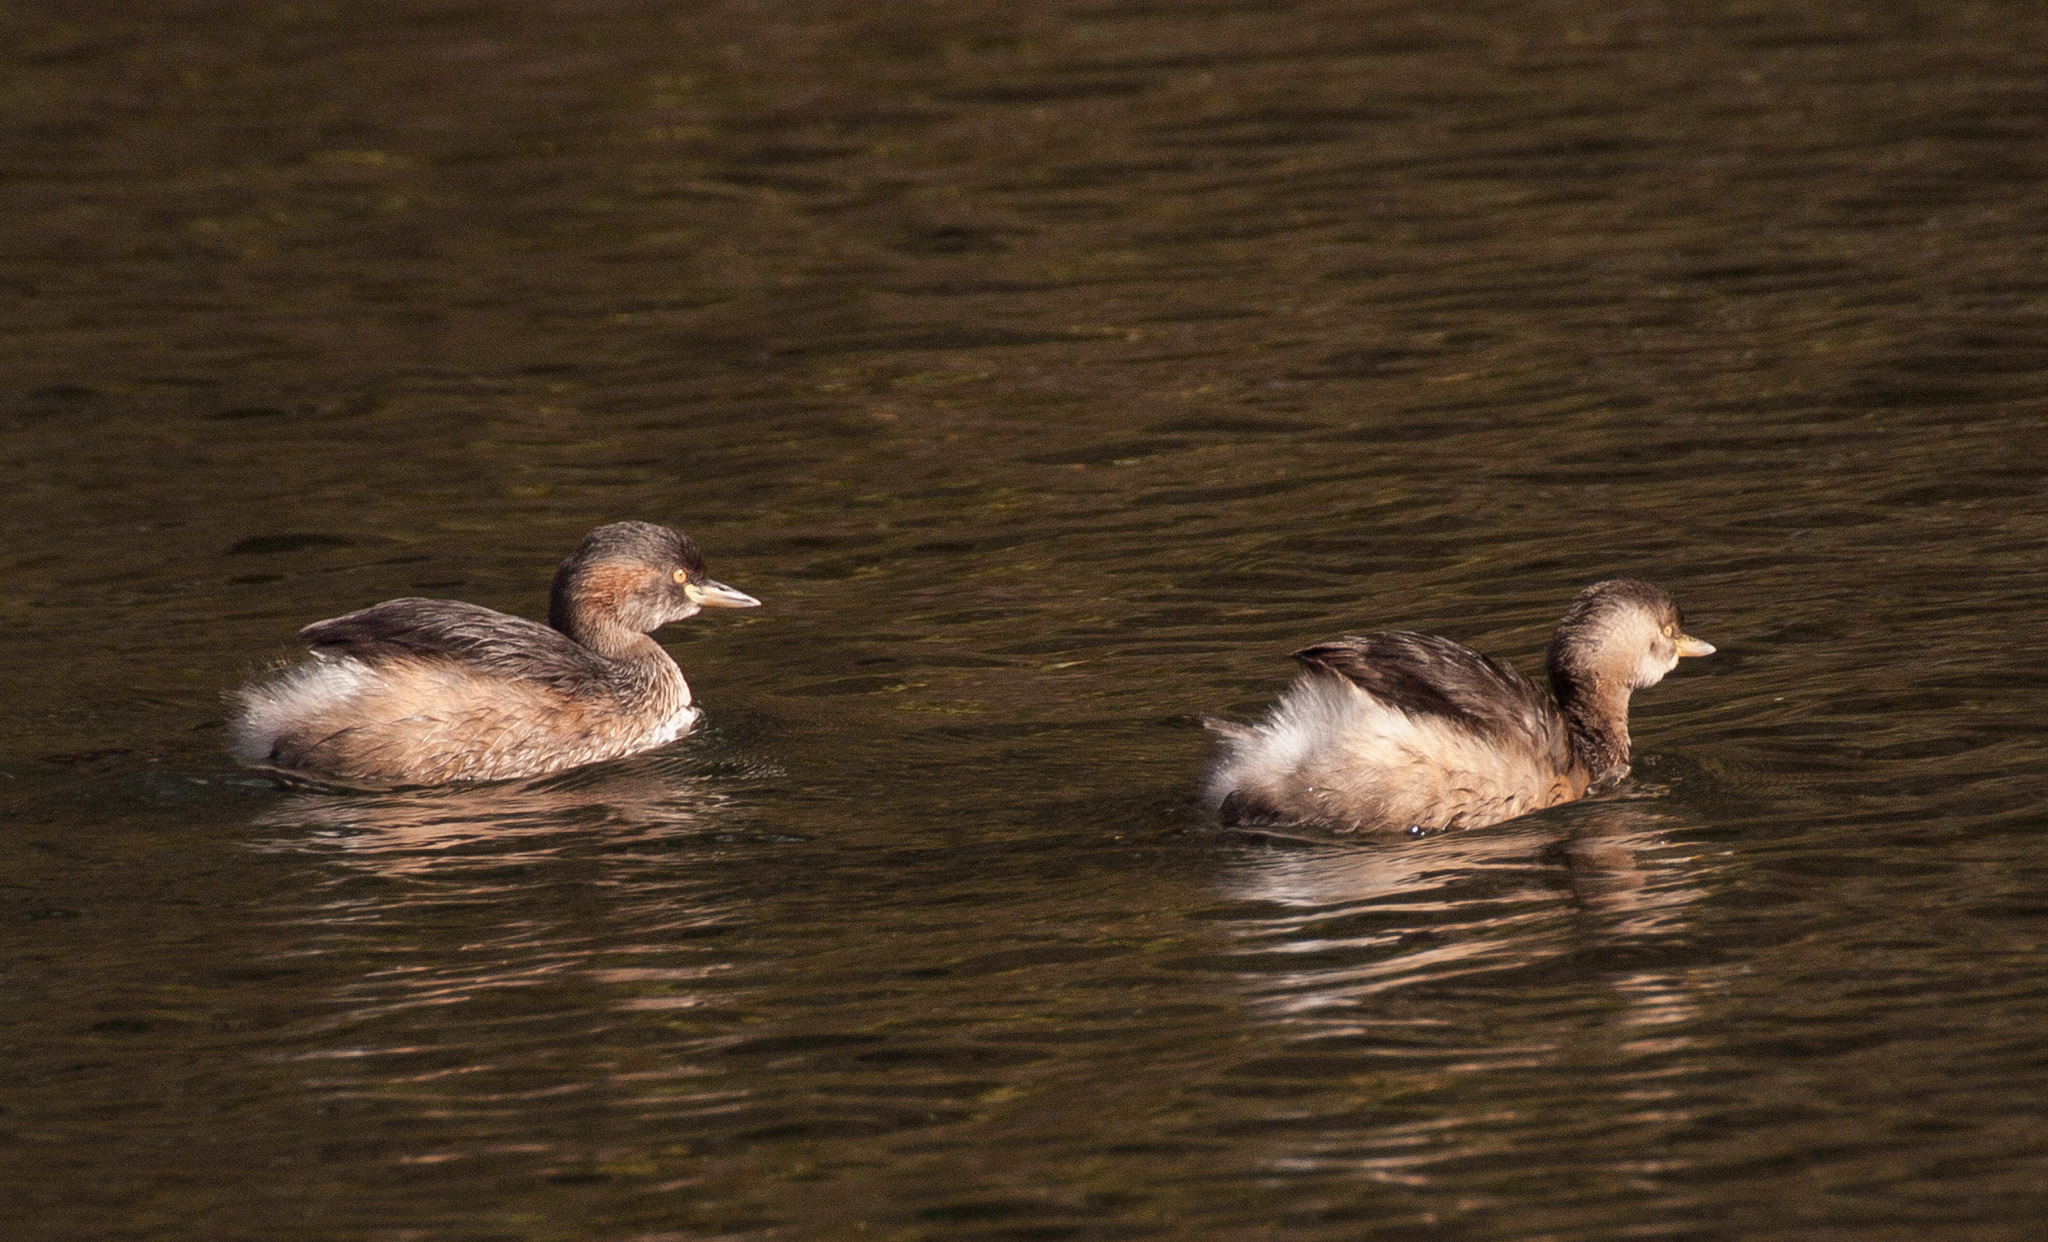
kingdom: Animalia
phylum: Chordata
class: Aves
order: Podicipediformes
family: Podicipedidae
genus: Tachybaptus
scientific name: Tachybaptus novaehollandiae
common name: Australasian grebe
